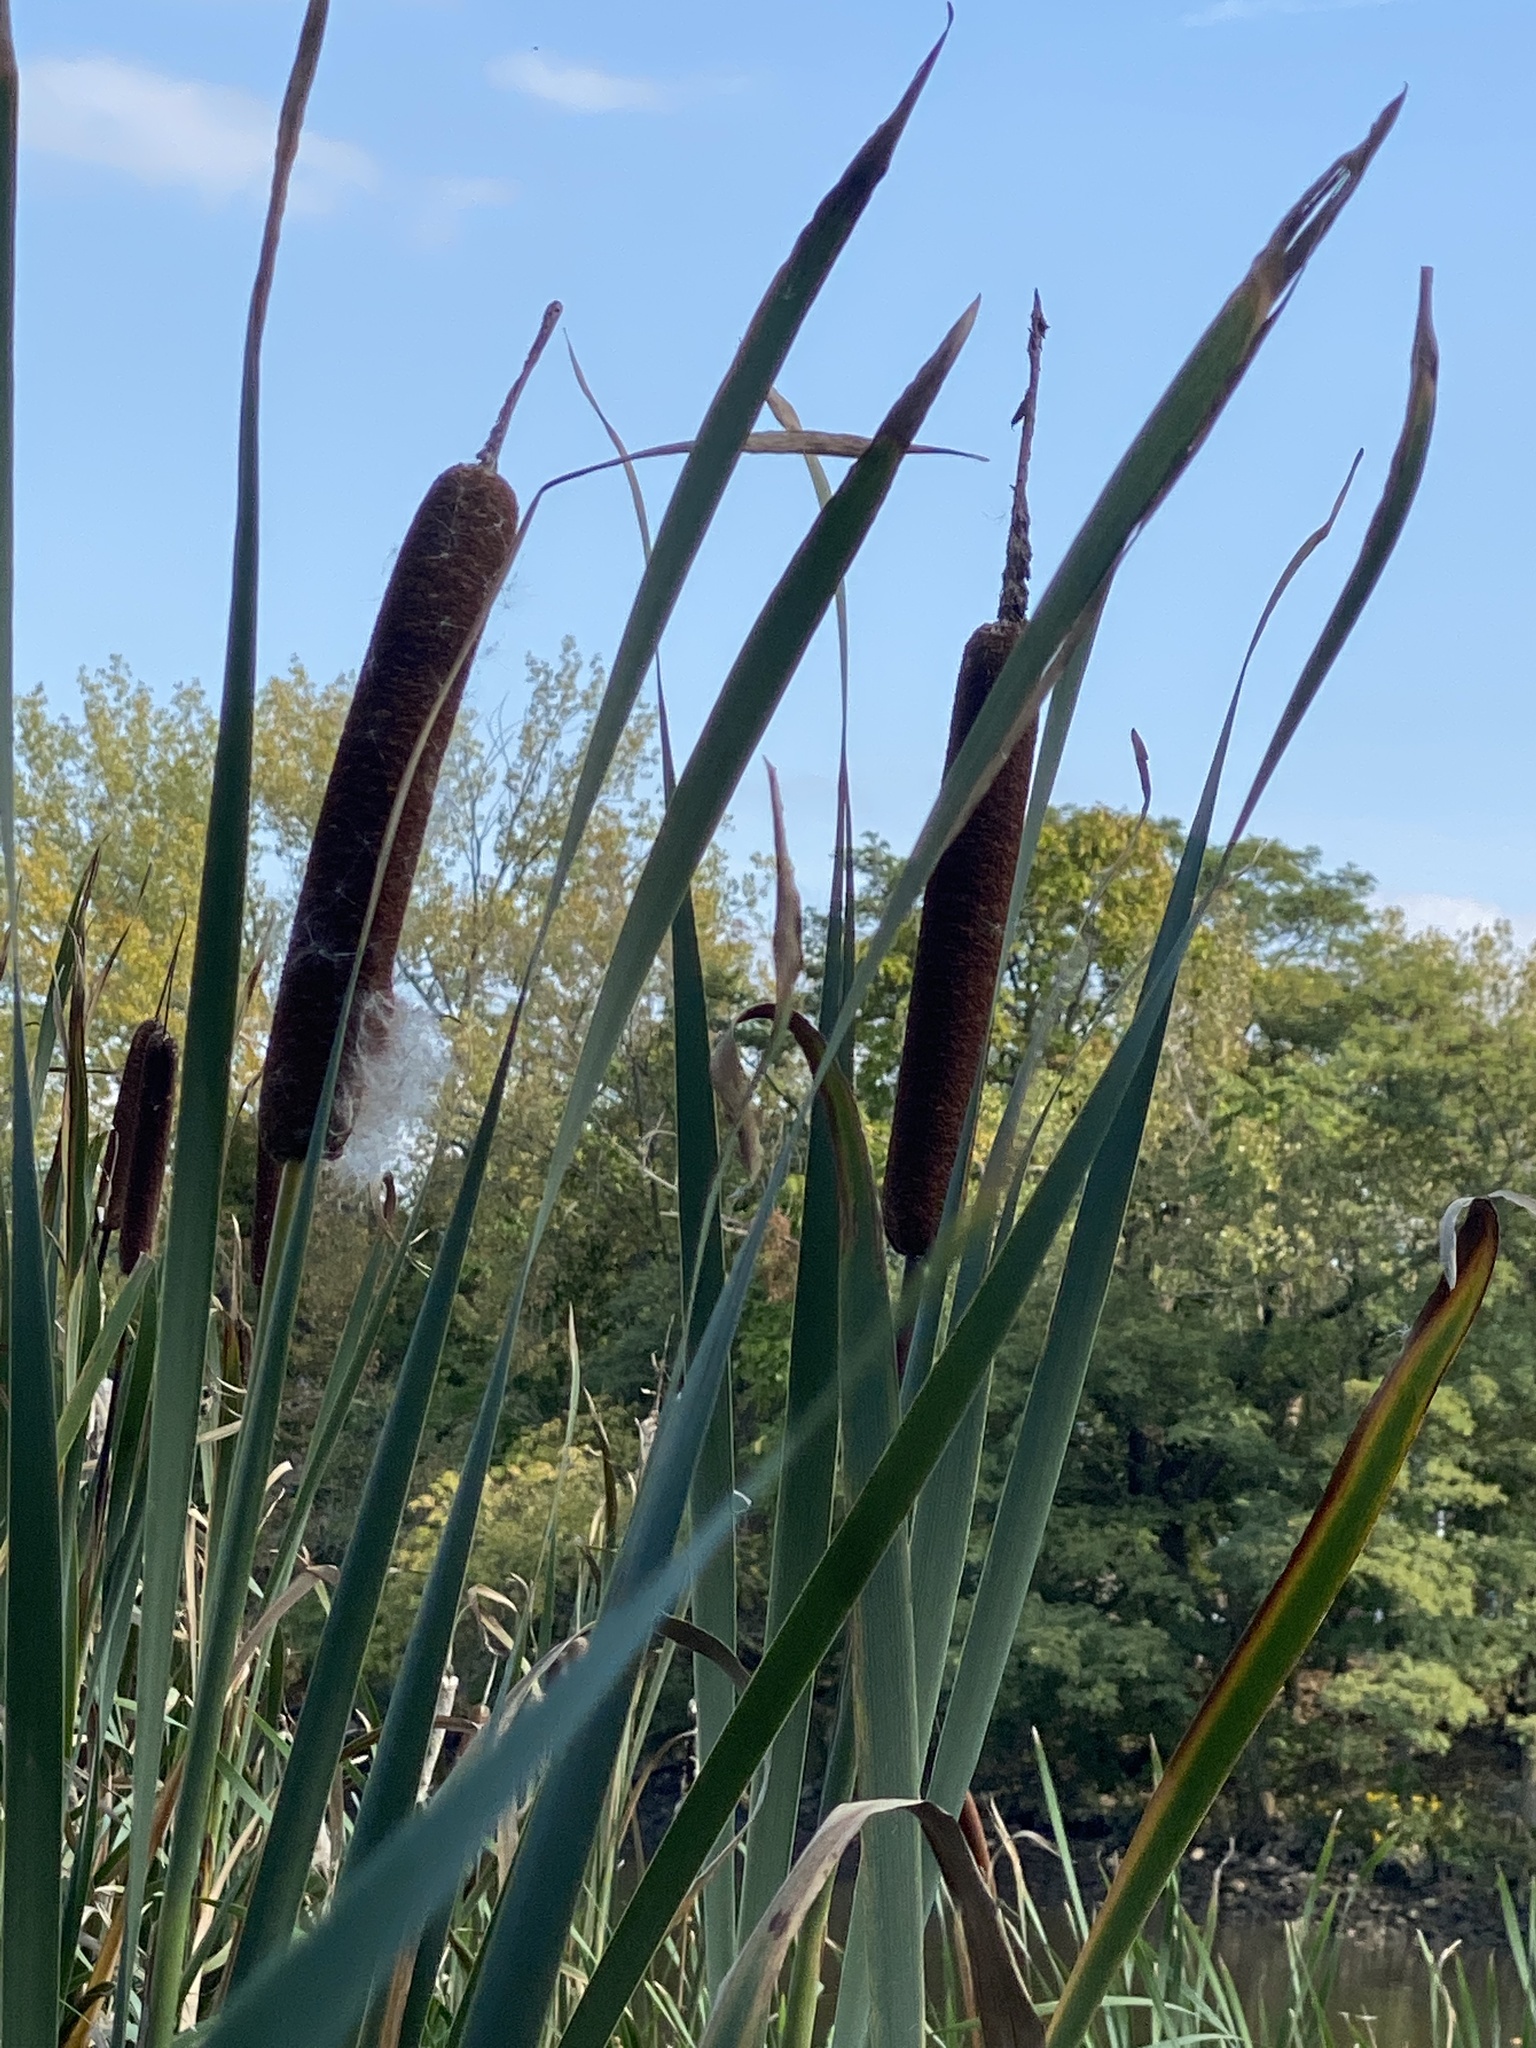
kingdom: Plantae
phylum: Tracheophyta
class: Liliopsida
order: Poales
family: Typhaceae
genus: Typha
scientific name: Typha latifolia
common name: Broadleaf cattail
